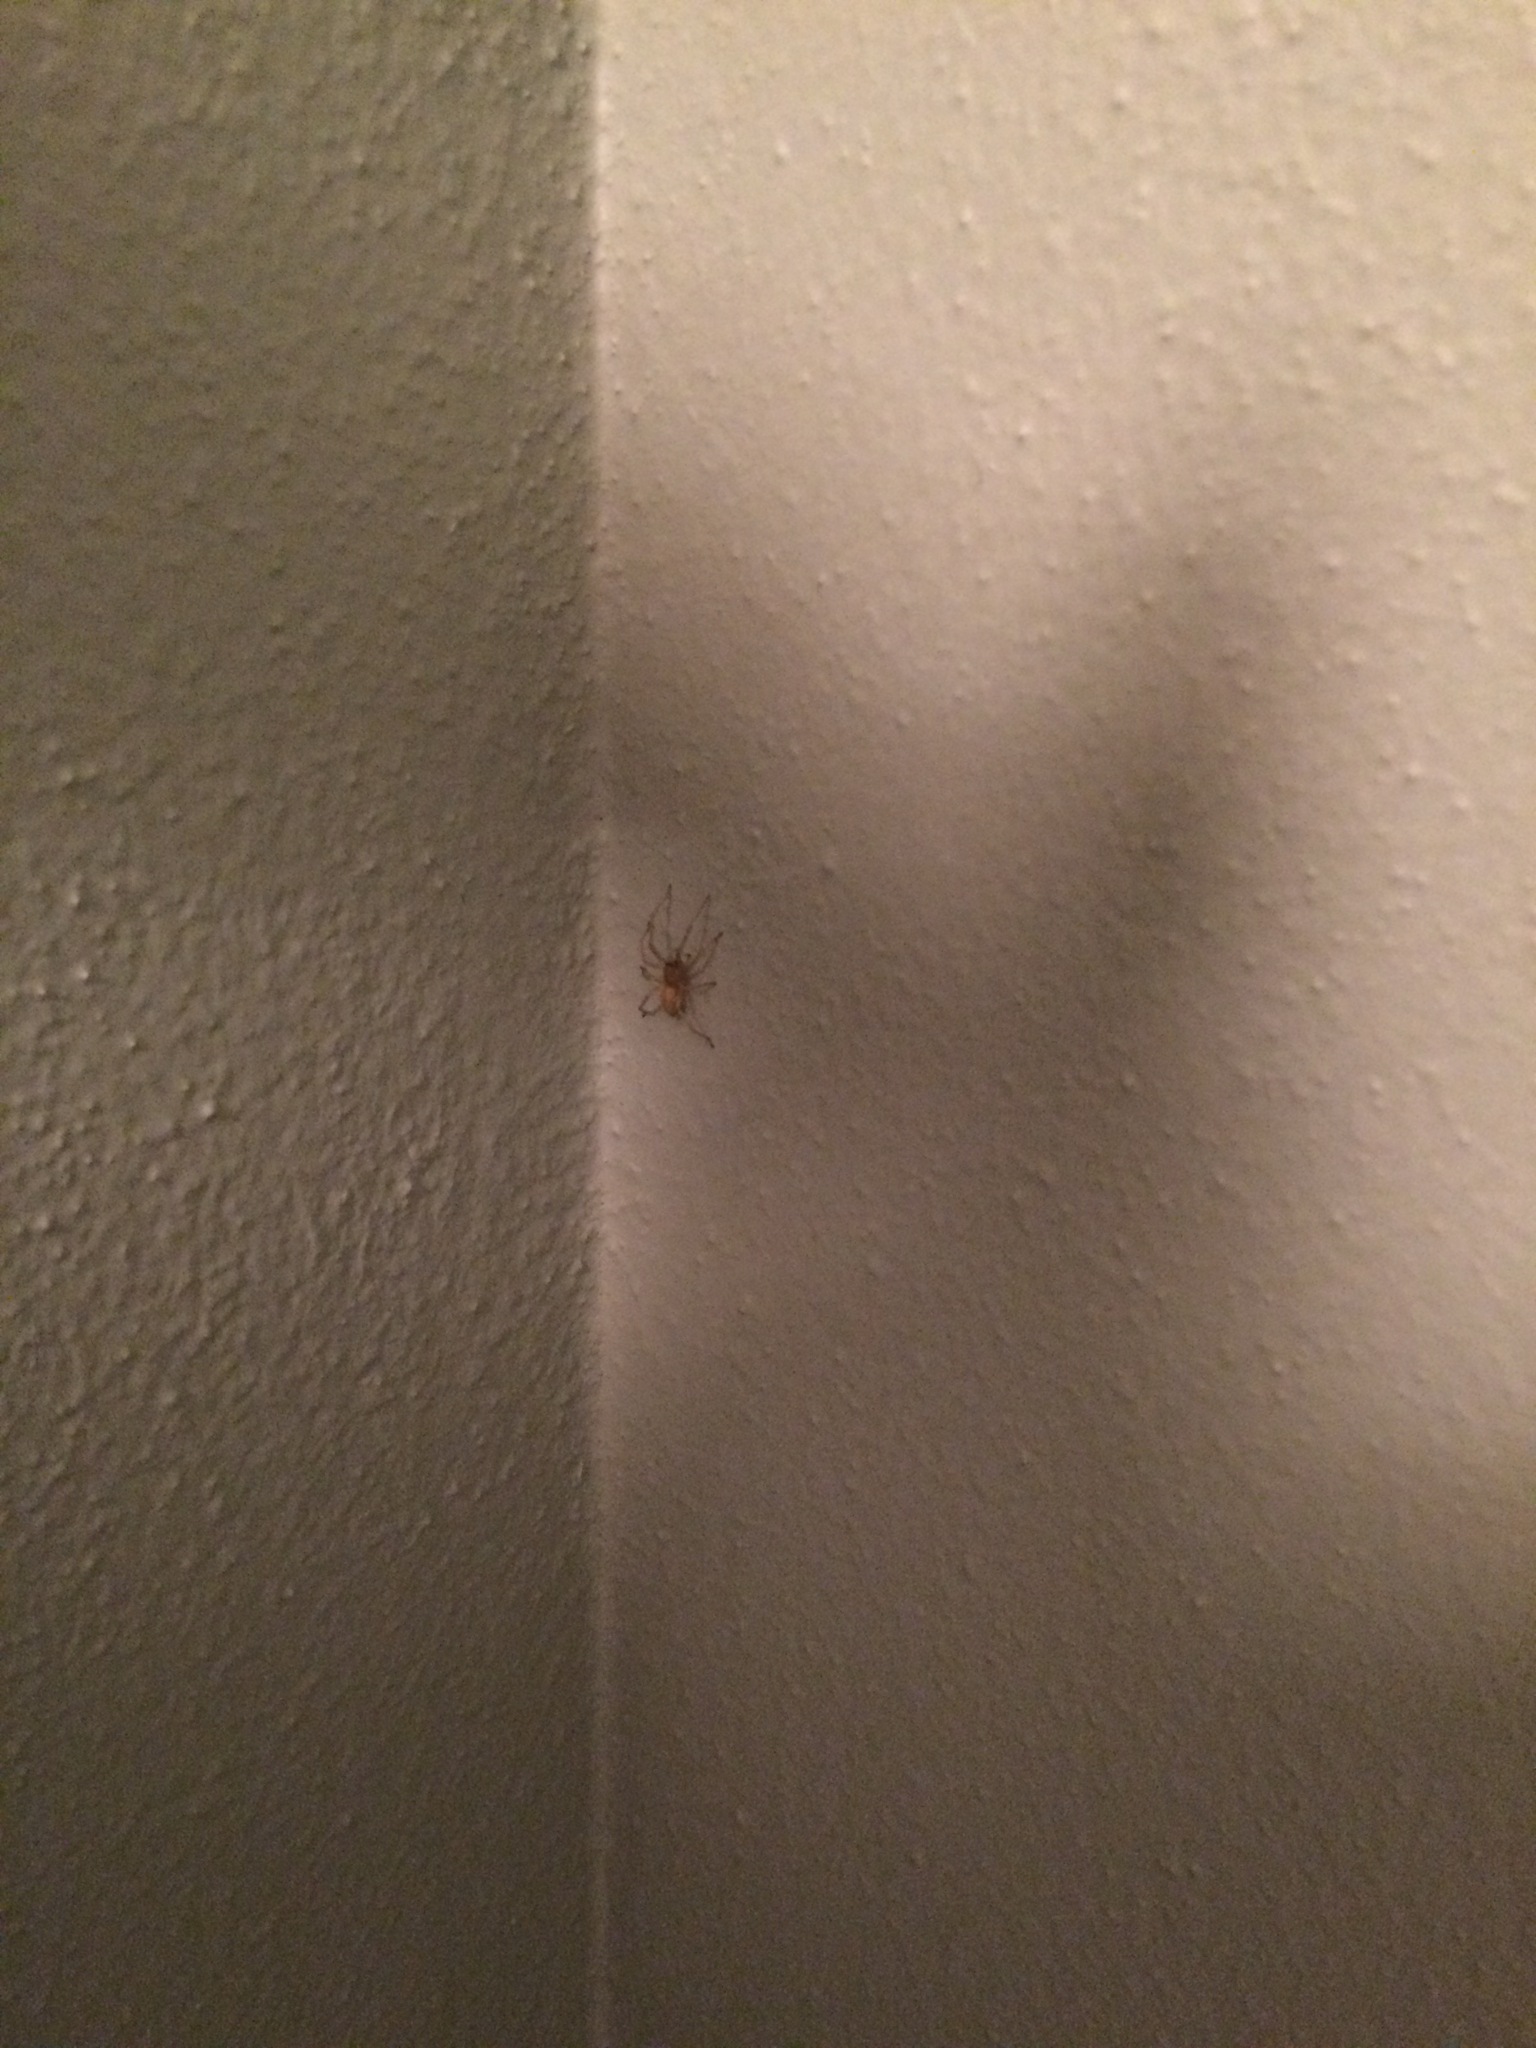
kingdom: Animalia
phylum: Arthropoda
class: Arachnida
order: Araneae
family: Cheiracanthiidae
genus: Cheiracanthium
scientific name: Cheiracanthium
